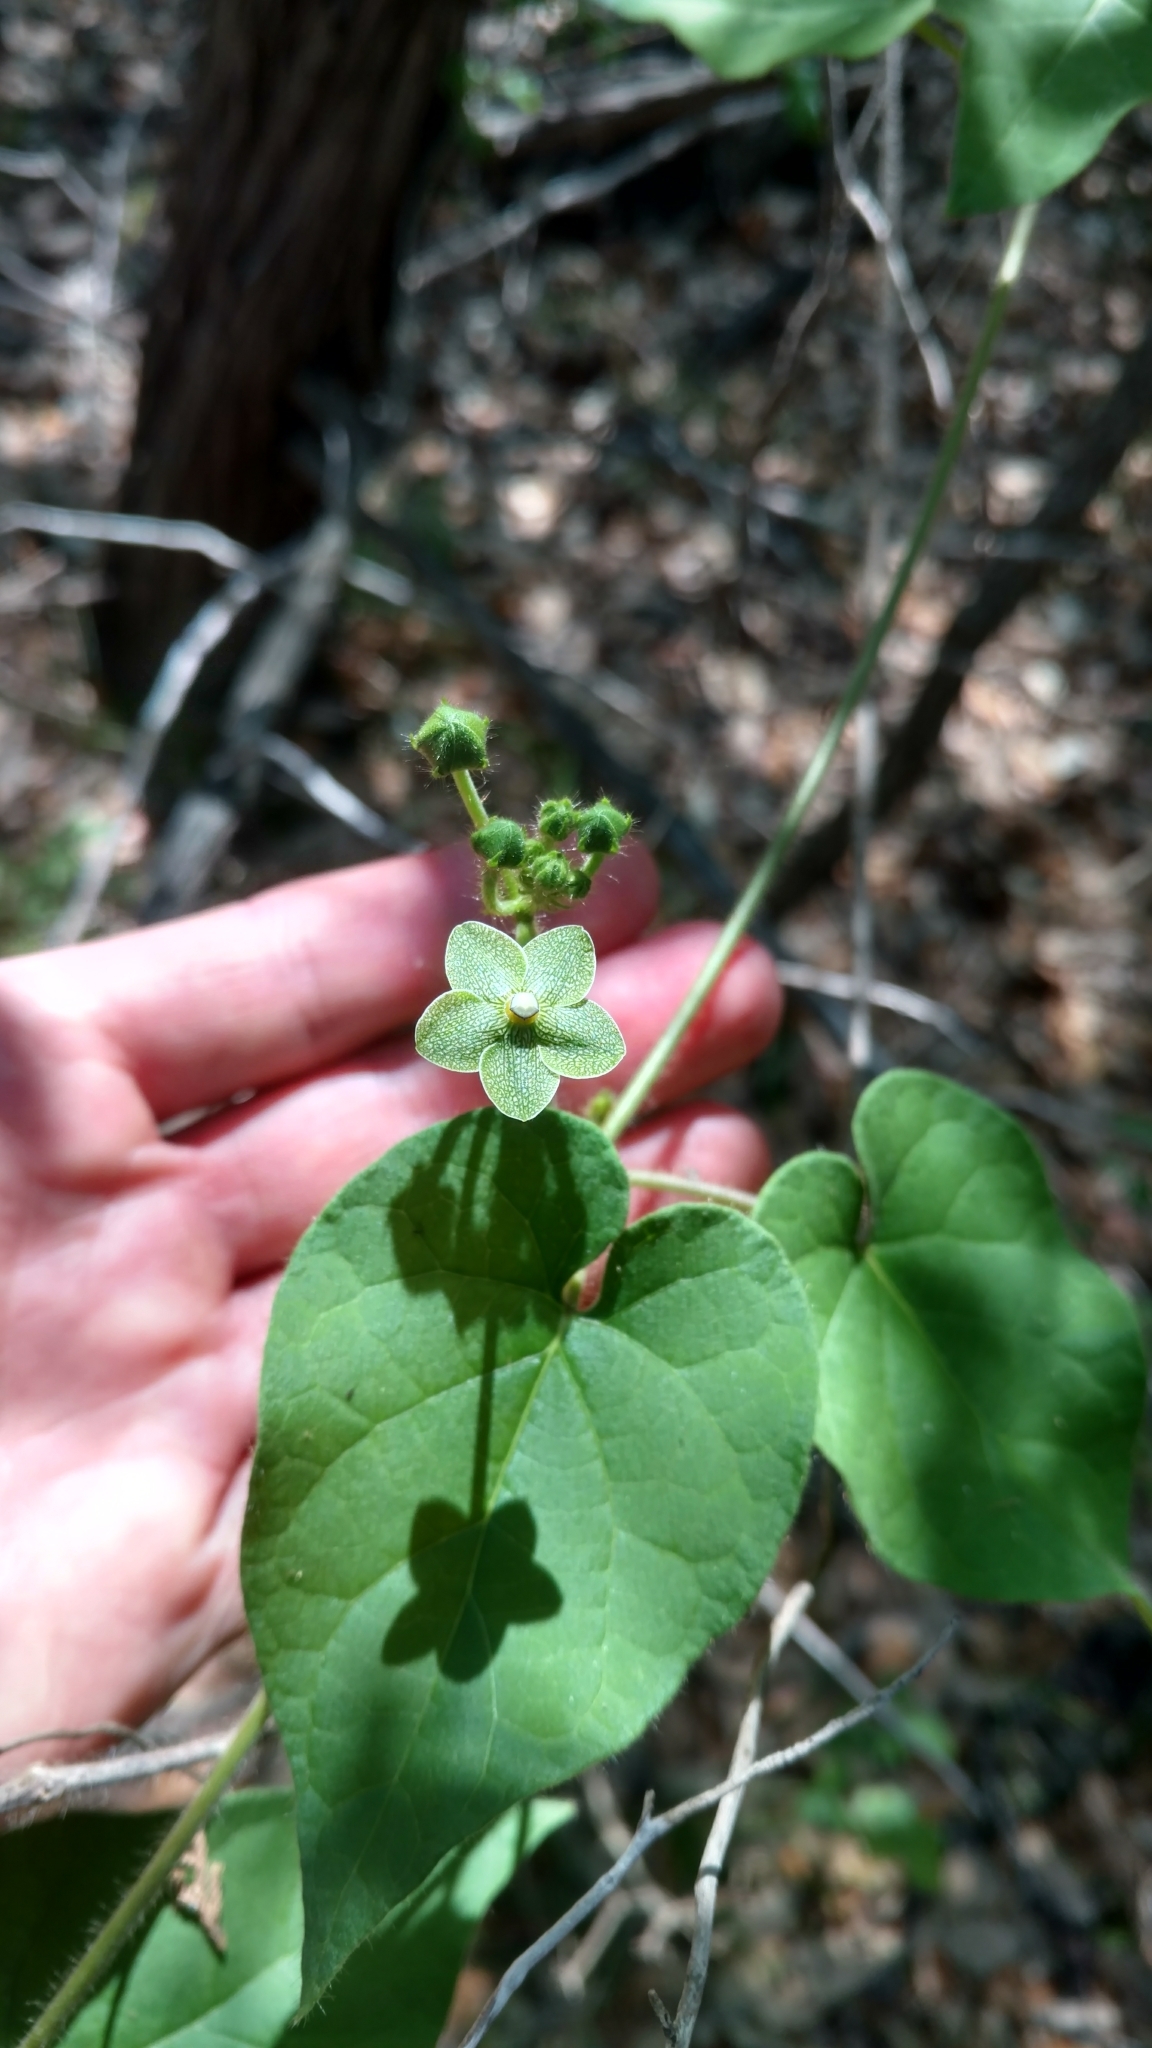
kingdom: Plantae
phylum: Tracheophyta
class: Magnoliopsida
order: Gentianales
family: Apocynaceae
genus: Dictyanthus
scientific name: Dictyanthus reticulatus
